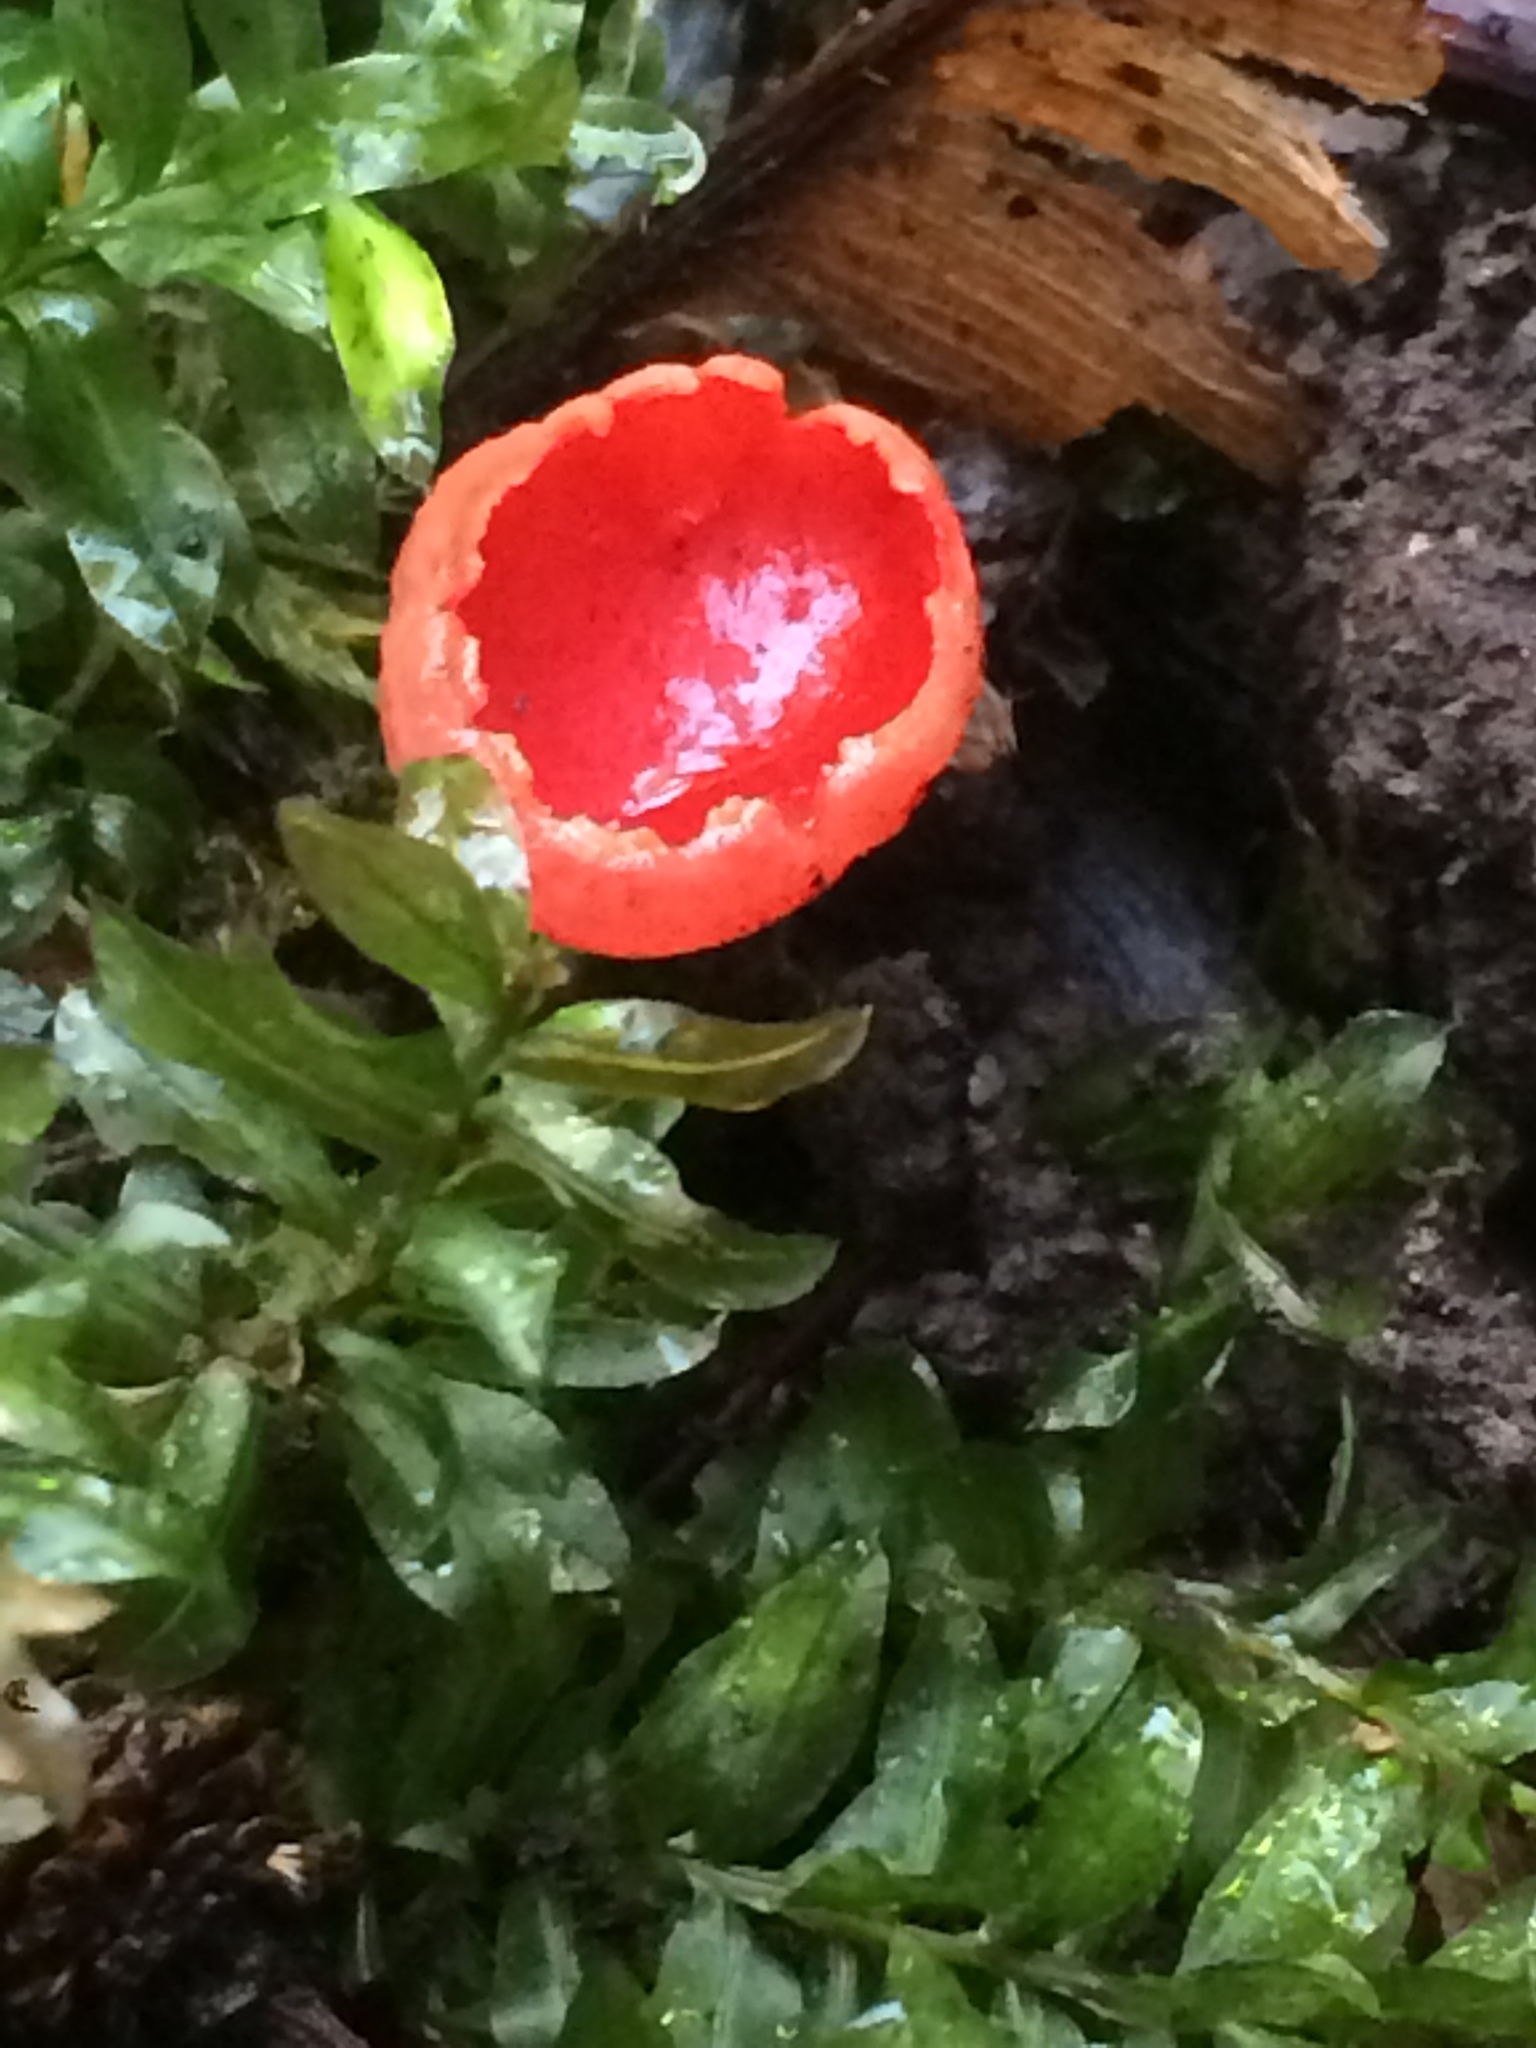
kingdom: Fungi
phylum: Ascomycota
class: Pezizomycetes
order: Pezizales
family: Sarcoscyphaceae
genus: Sarcoscypha
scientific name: Sarcoscypha coccinea
